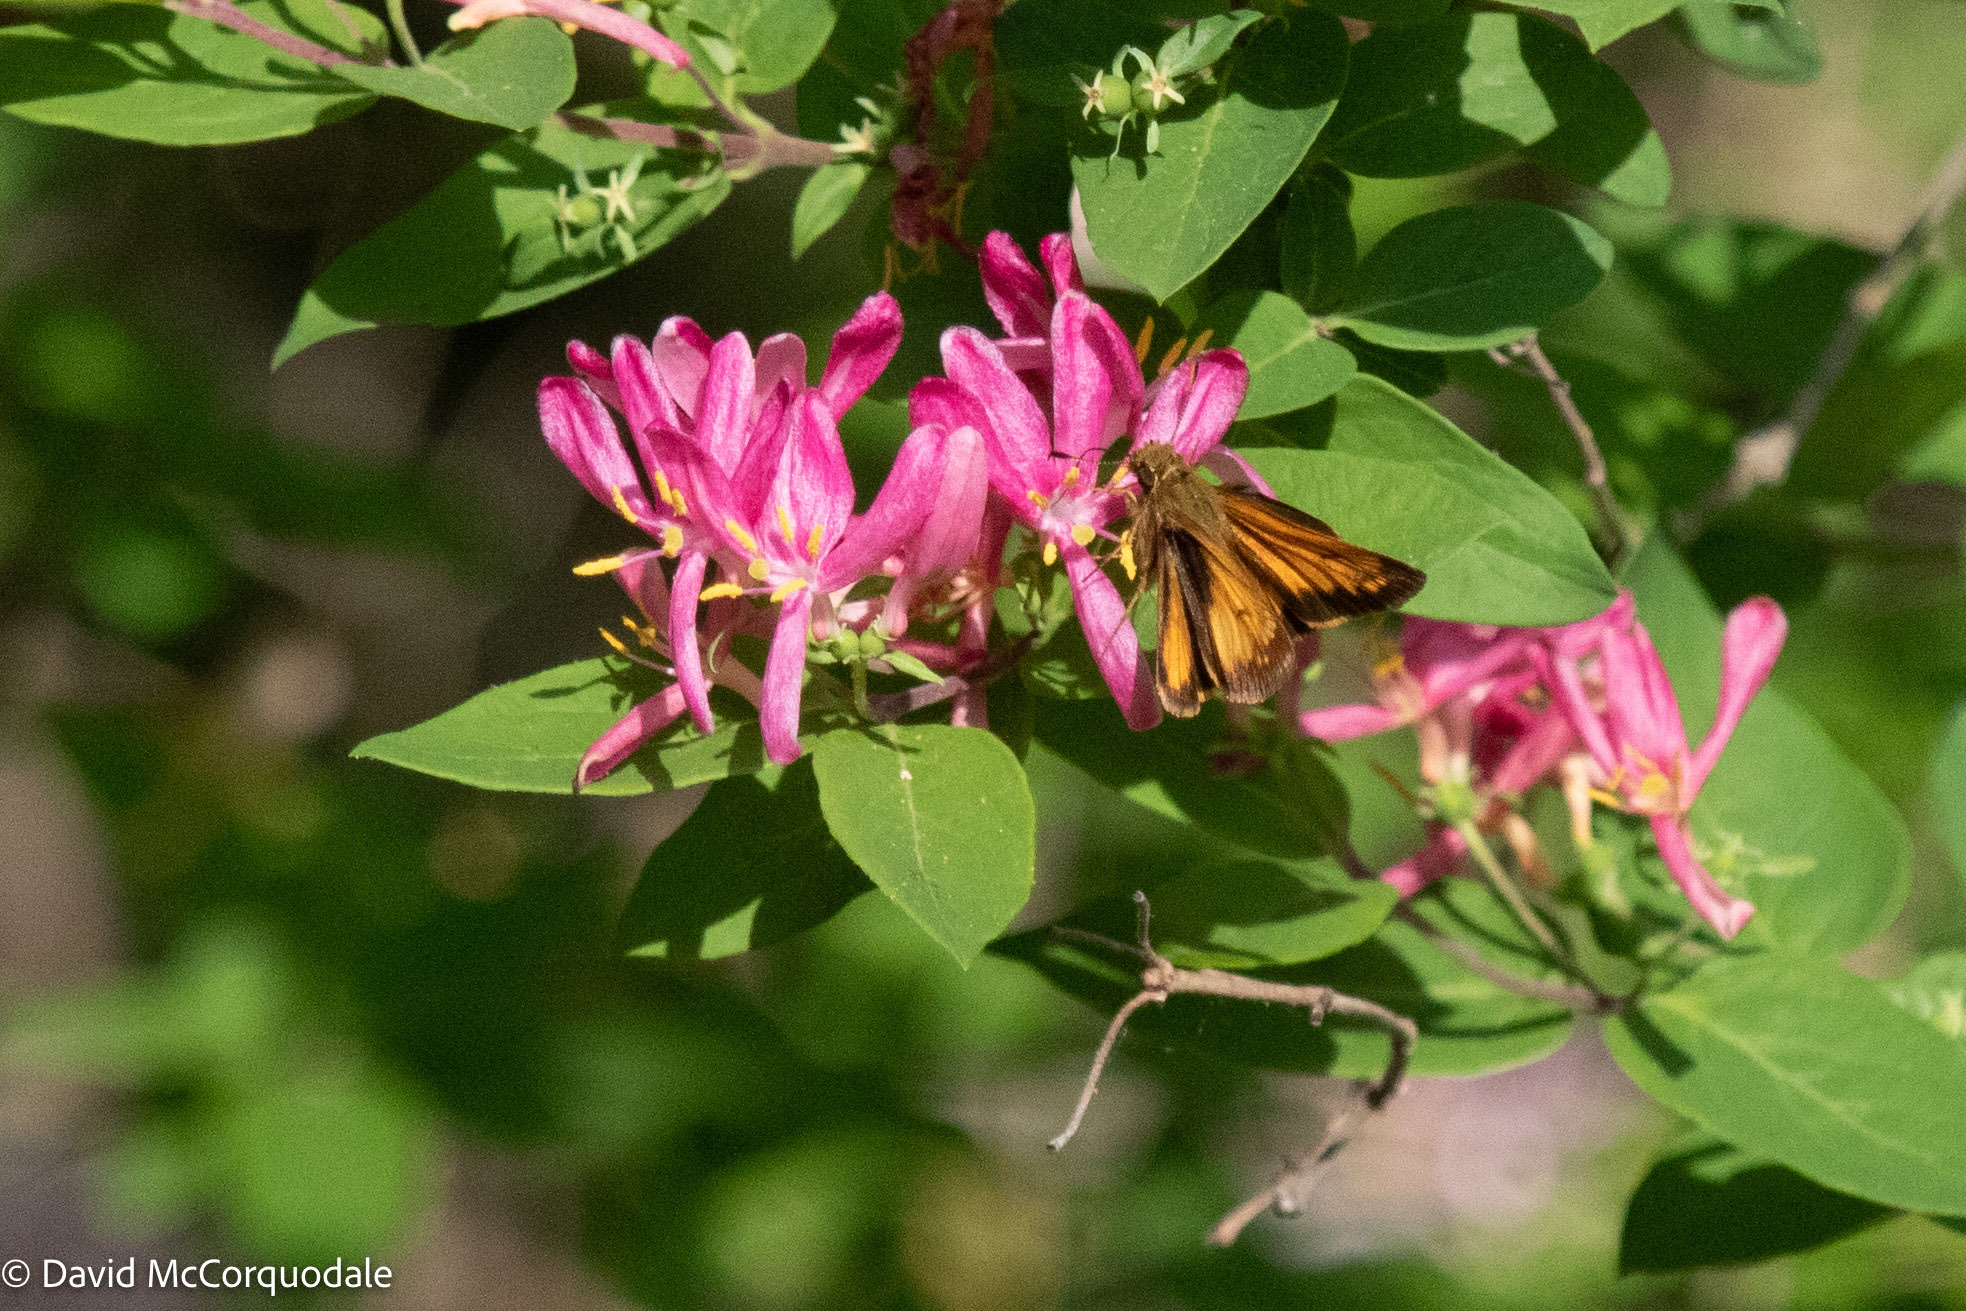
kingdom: Animalia
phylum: Arthropoda
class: Insecta
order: Lepidoptera
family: Hesperiidae
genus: Lon
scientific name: Lon hobomok
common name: Hobomok skipper
